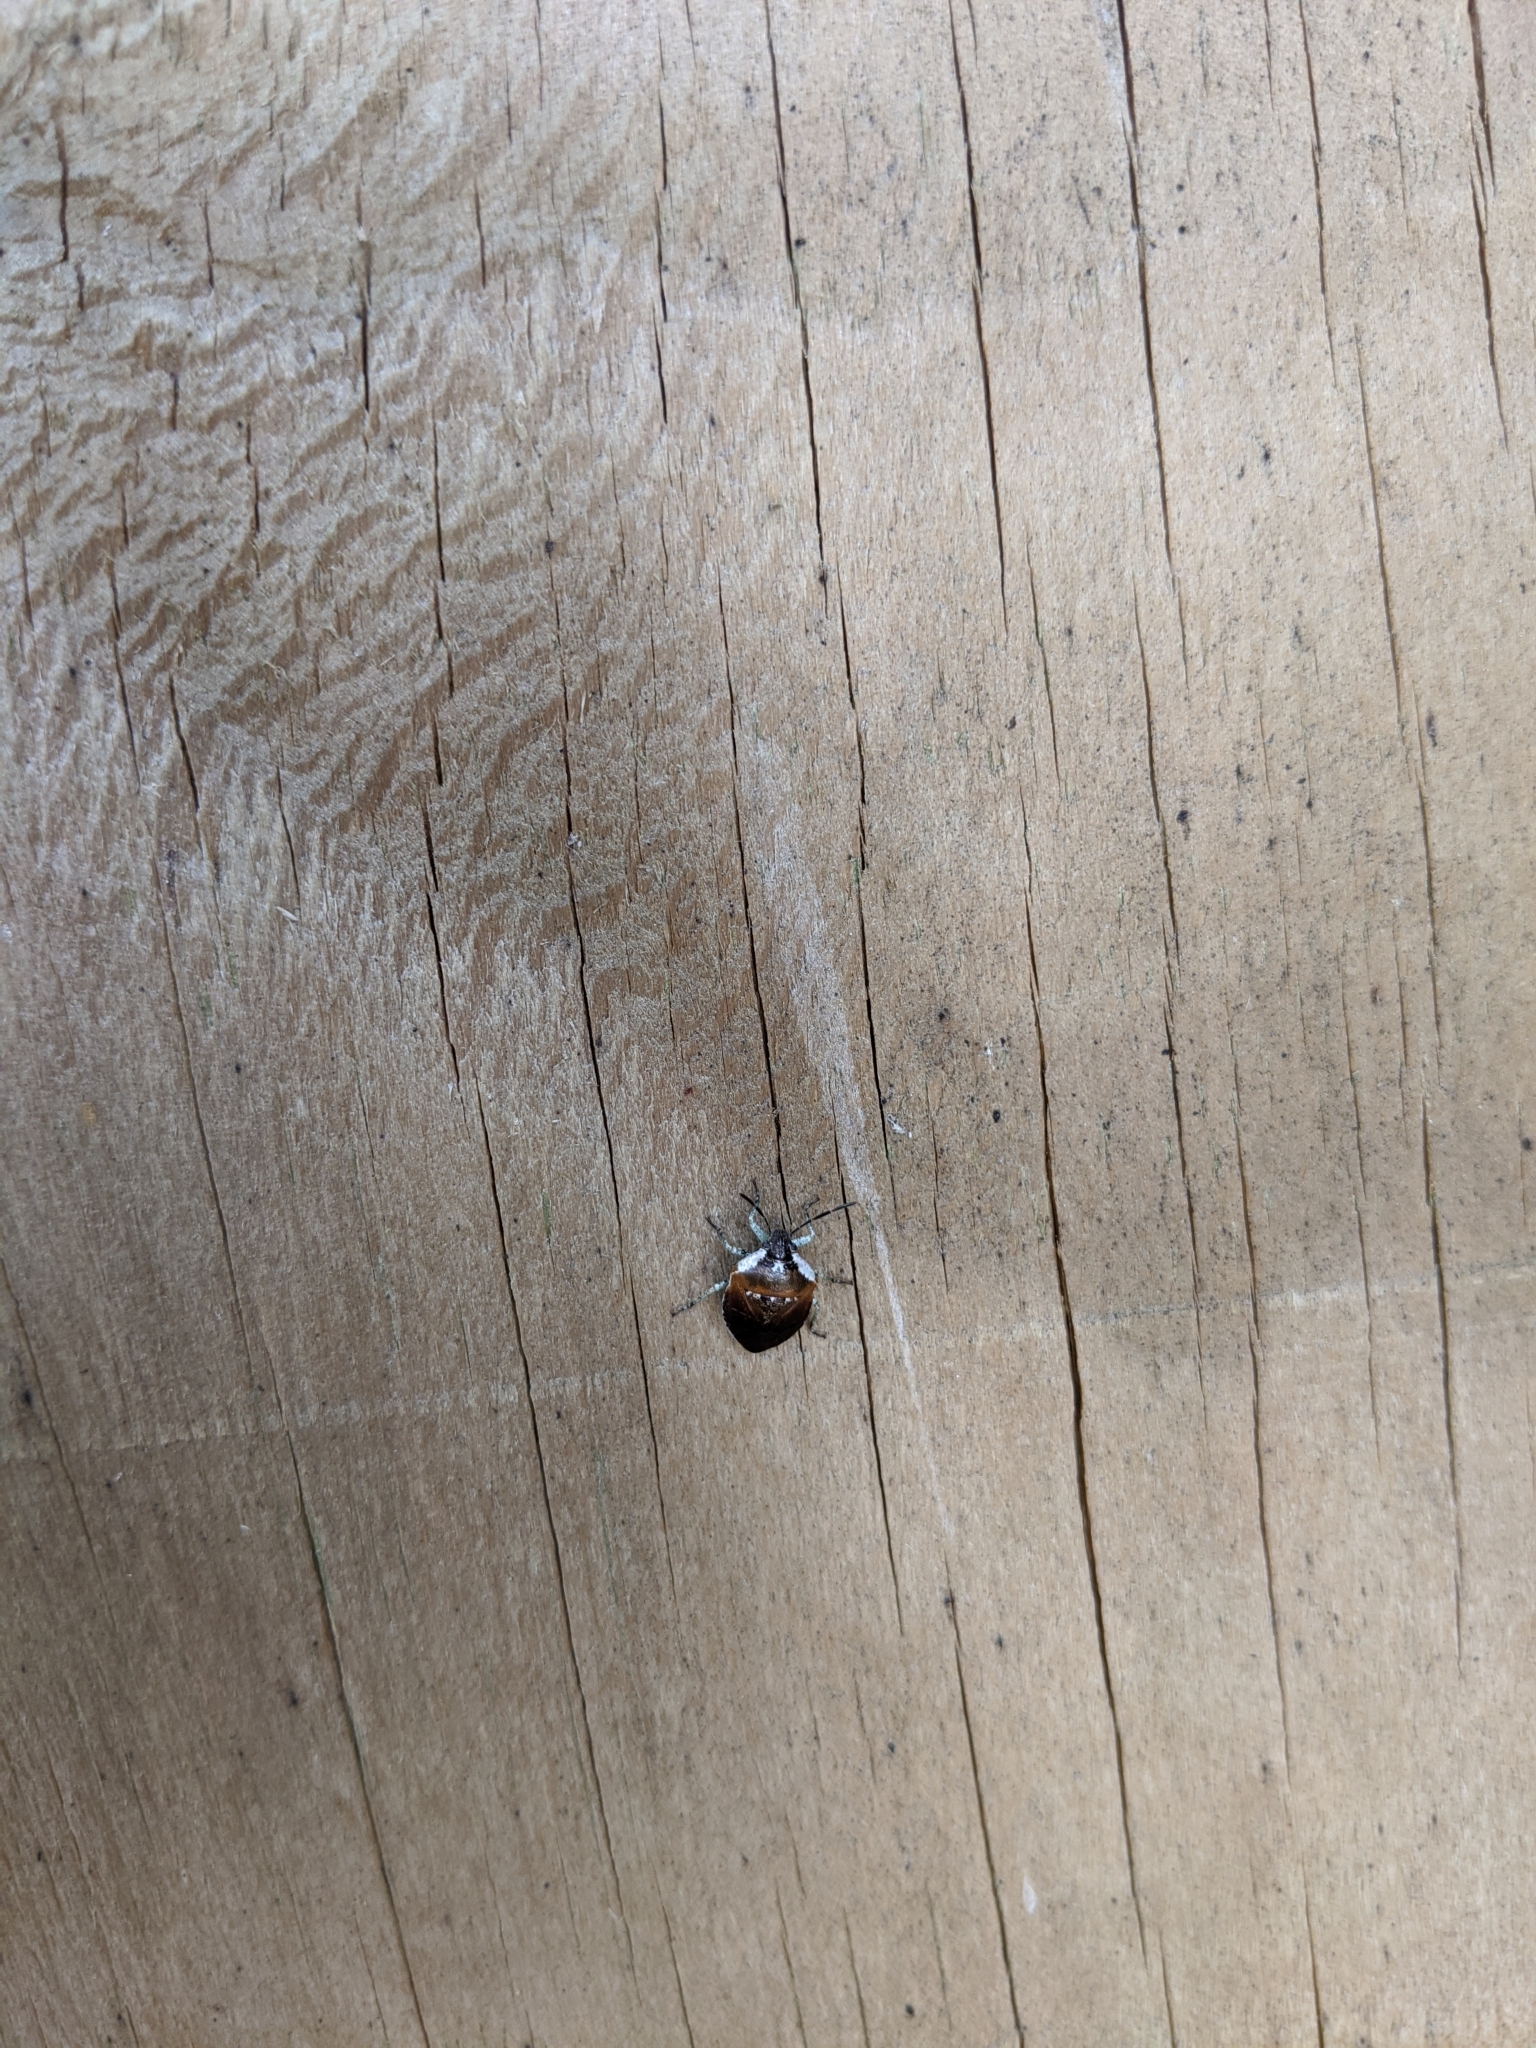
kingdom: Animalia
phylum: Arthropoda
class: Insecta
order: Hemiptera
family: Pentatomidae
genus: Monteithiella
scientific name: Monteithiella
